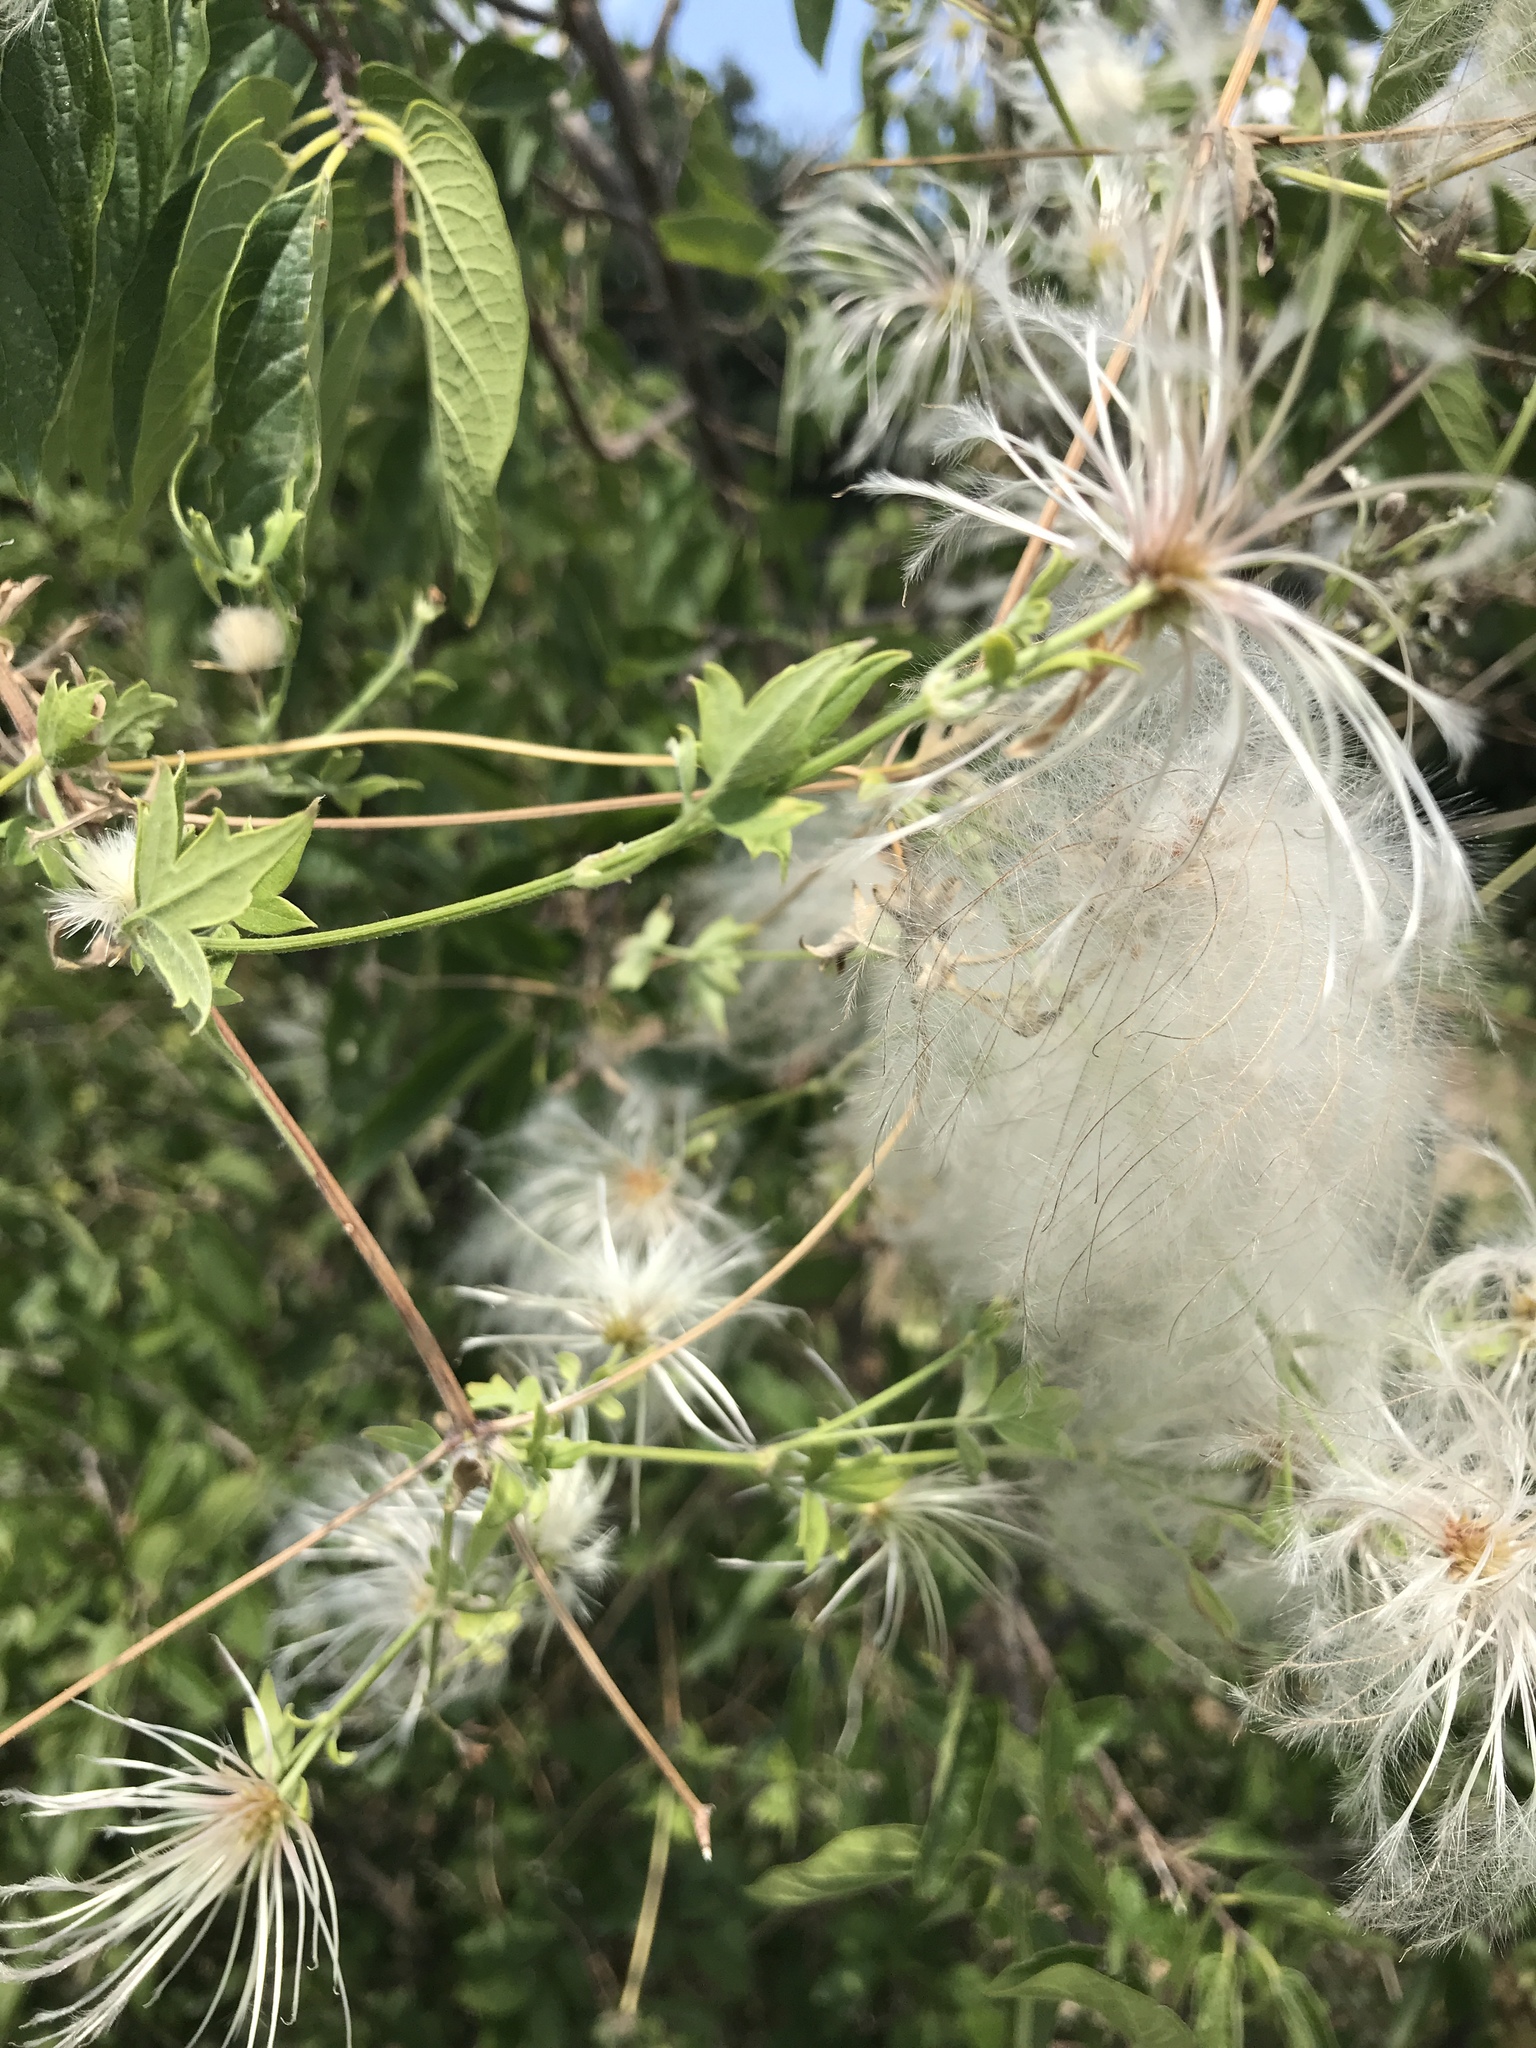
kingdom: Plantae
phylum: Tracheophyta
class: Magnoliopsida
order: Ranunculales
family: Ranunculaceae
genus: Clematis
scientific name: Clematis drummondii
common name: Texas virgin's bower
